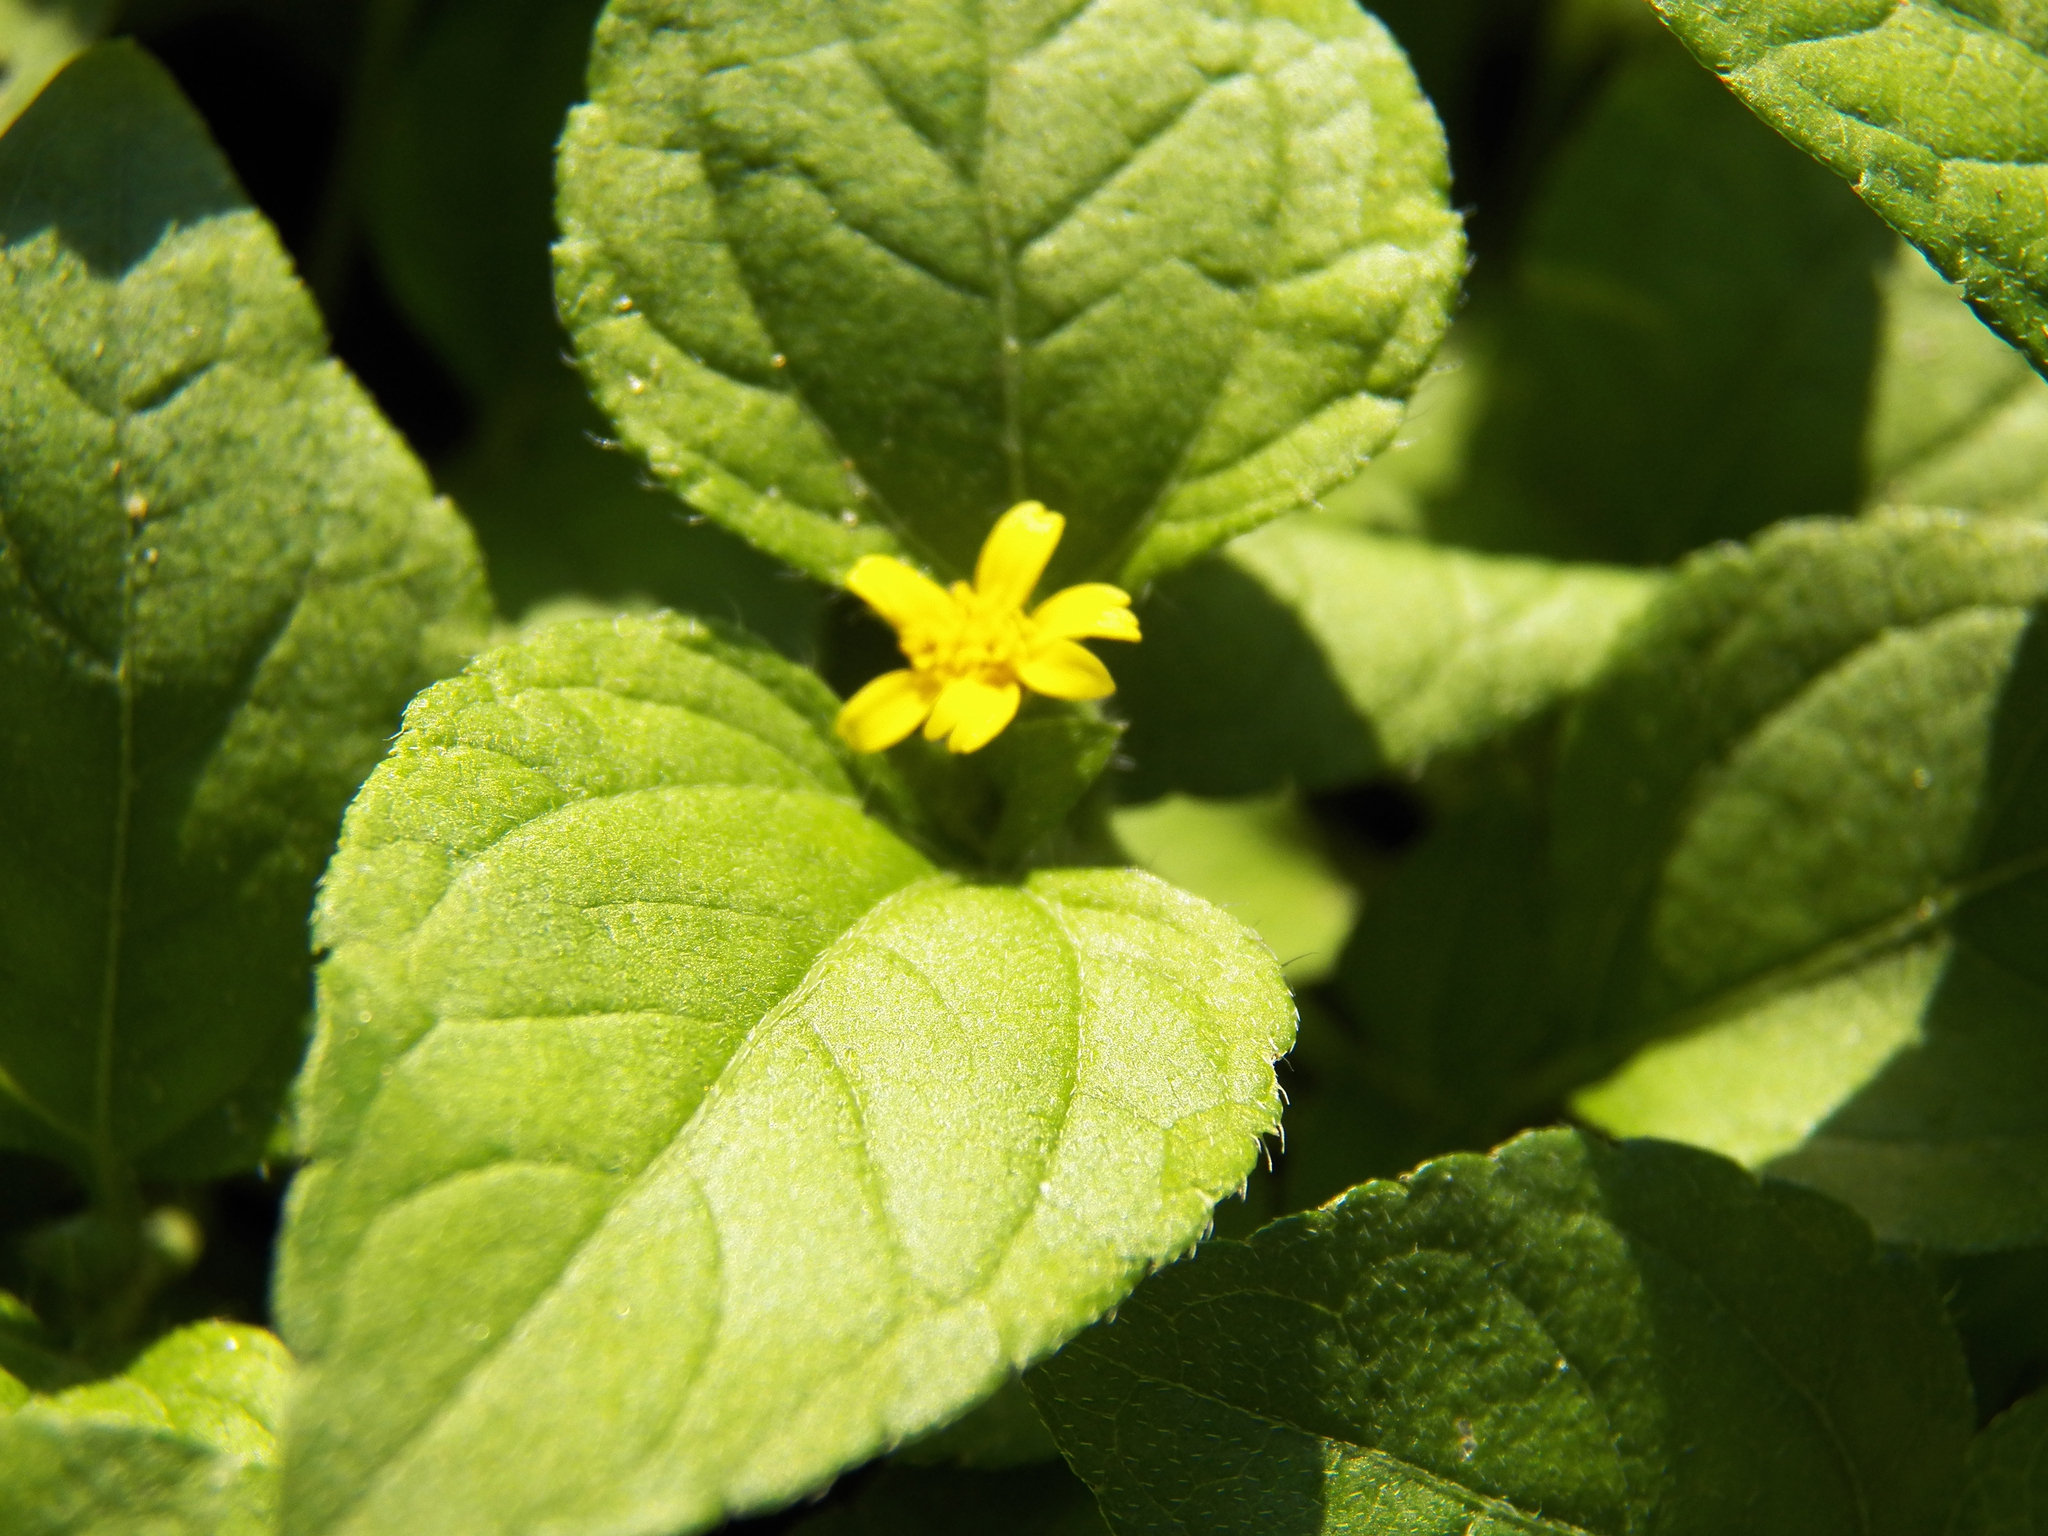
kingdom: Plantae
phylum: Tracheophyta
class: Magnoliopsida
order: Asterales
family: Asteraceae
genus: Calyptocarpus
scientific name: Calyptocarpus vialis
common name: Straggler daisy
